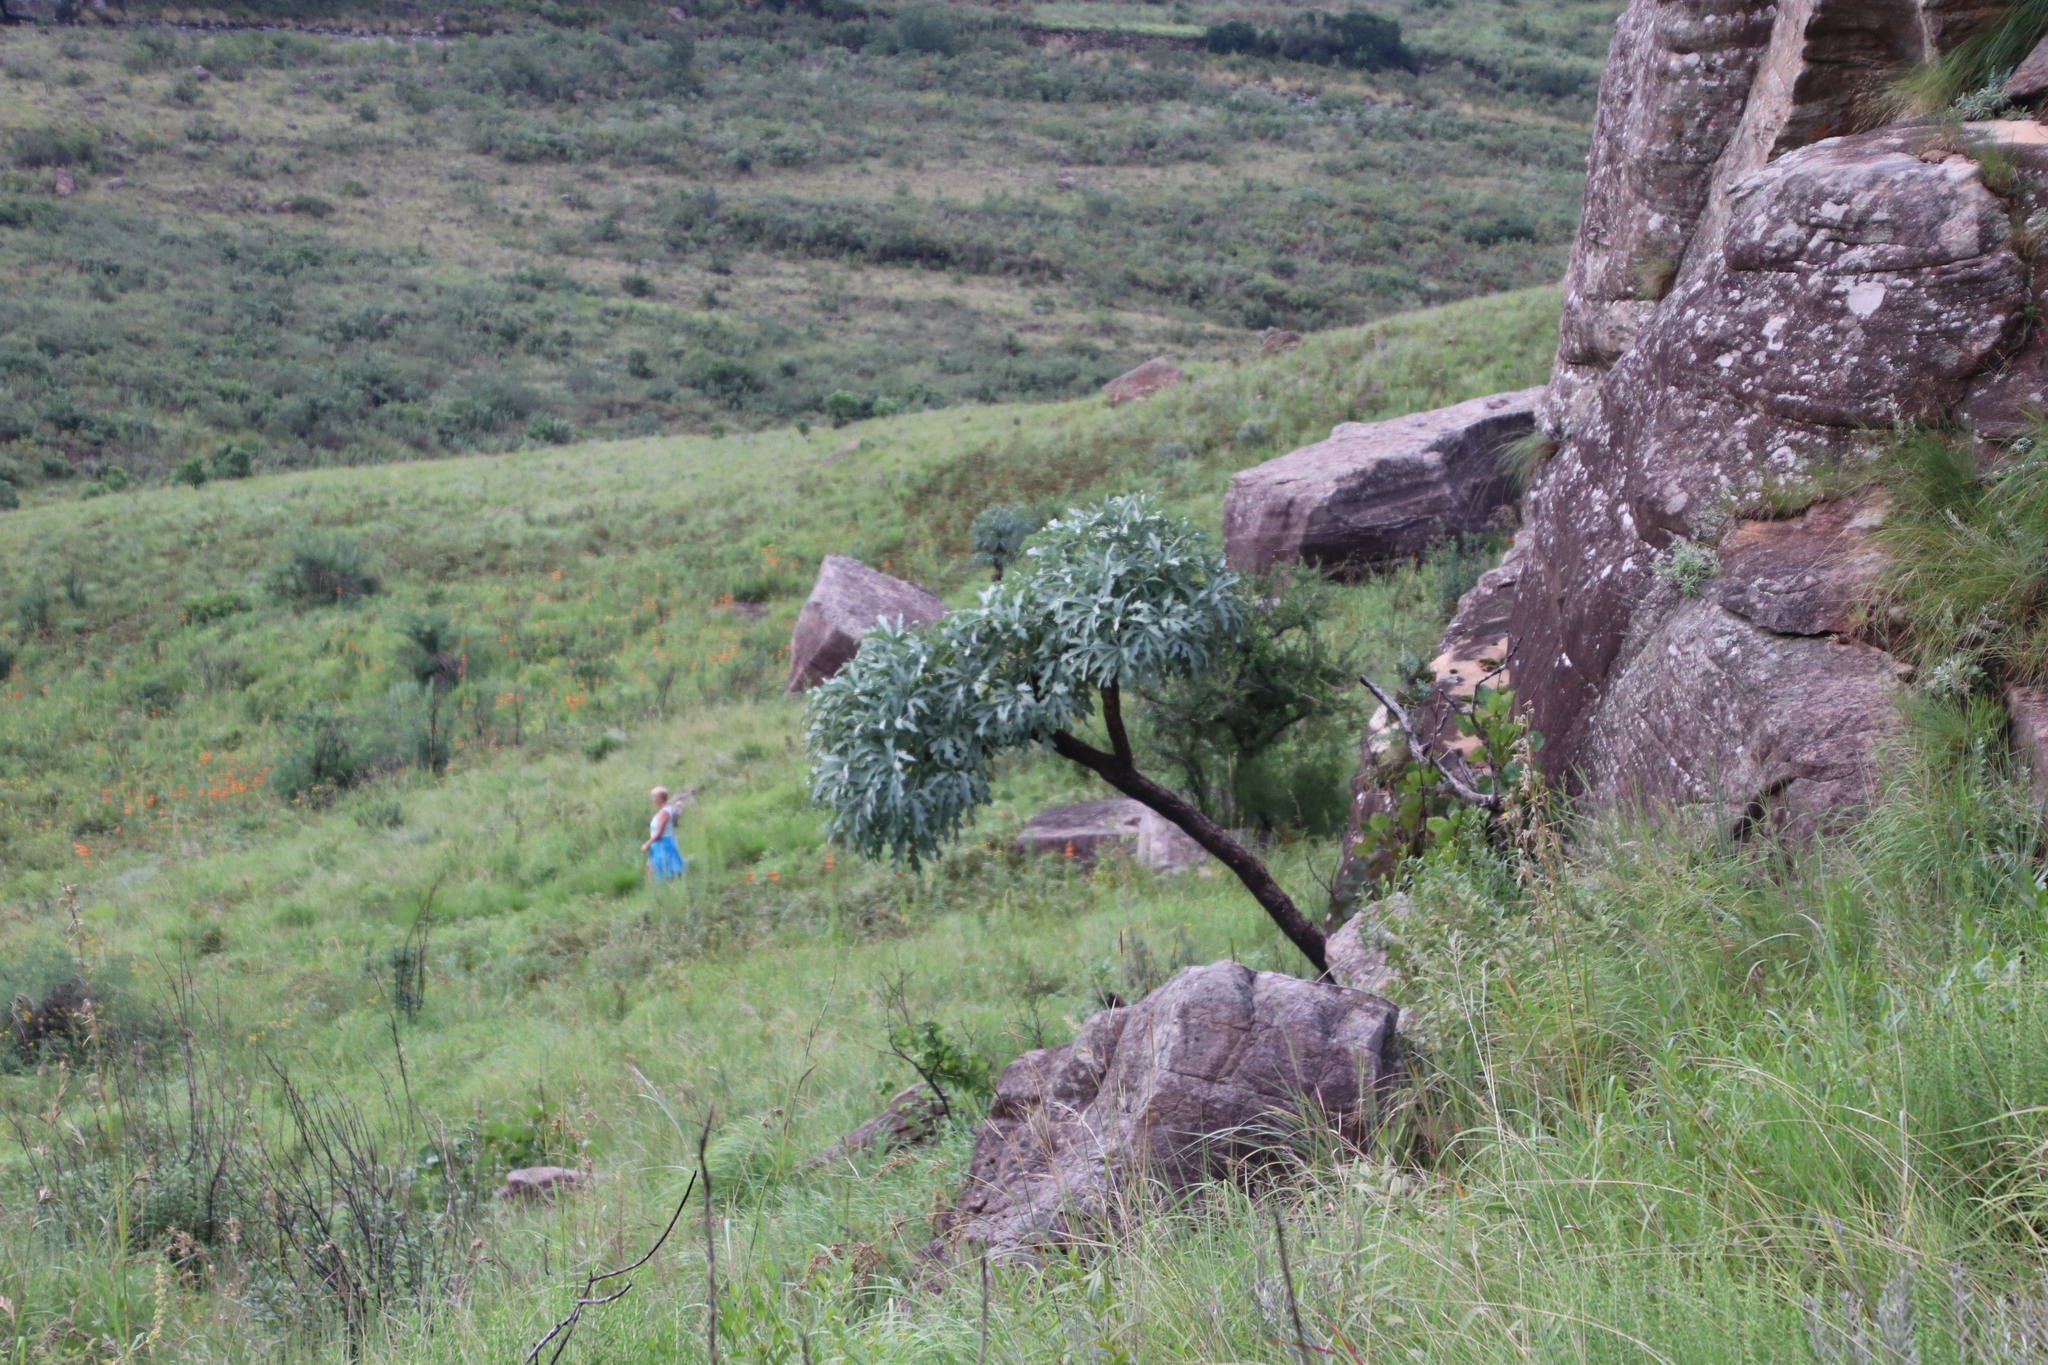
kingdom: Plantae
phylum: Tracheophyta
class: Magnoliopsida
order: Apiales
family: Araliaceae
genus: Cussonia
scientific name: Cussonia paniculata
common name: Cabbagetree
